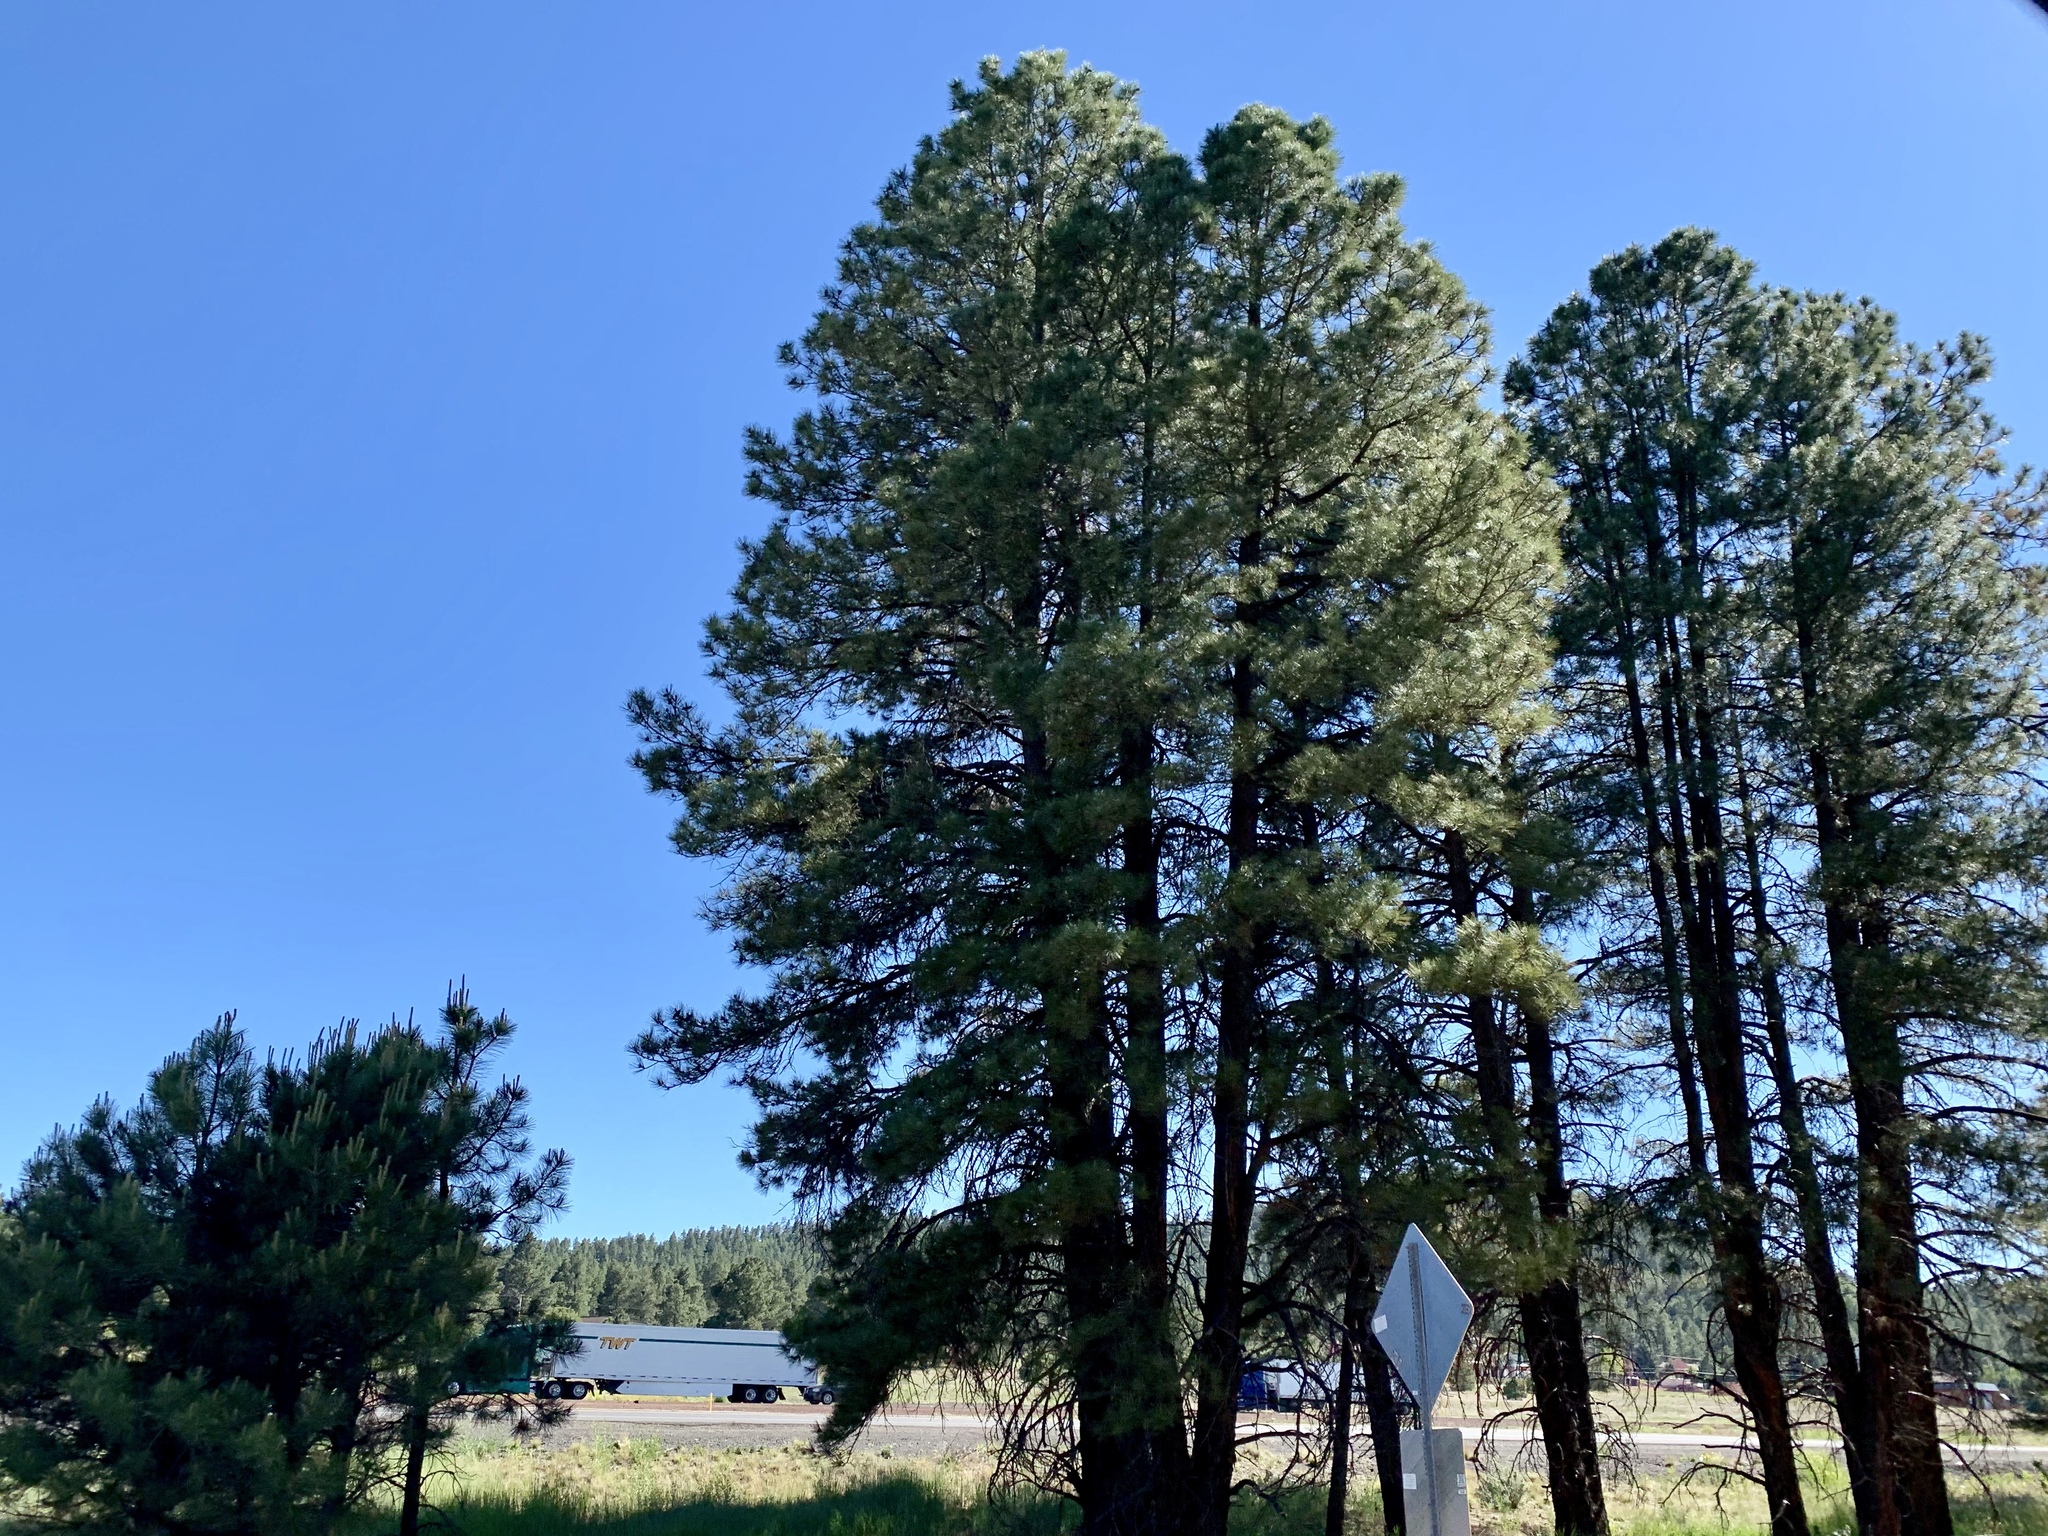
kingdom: Plantae
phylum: Tracheophyta
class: Pinopsida
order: Pinales
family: Pinaceae
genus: Pinus
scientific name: Pinus ponderosa
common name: Western yellow-pine
